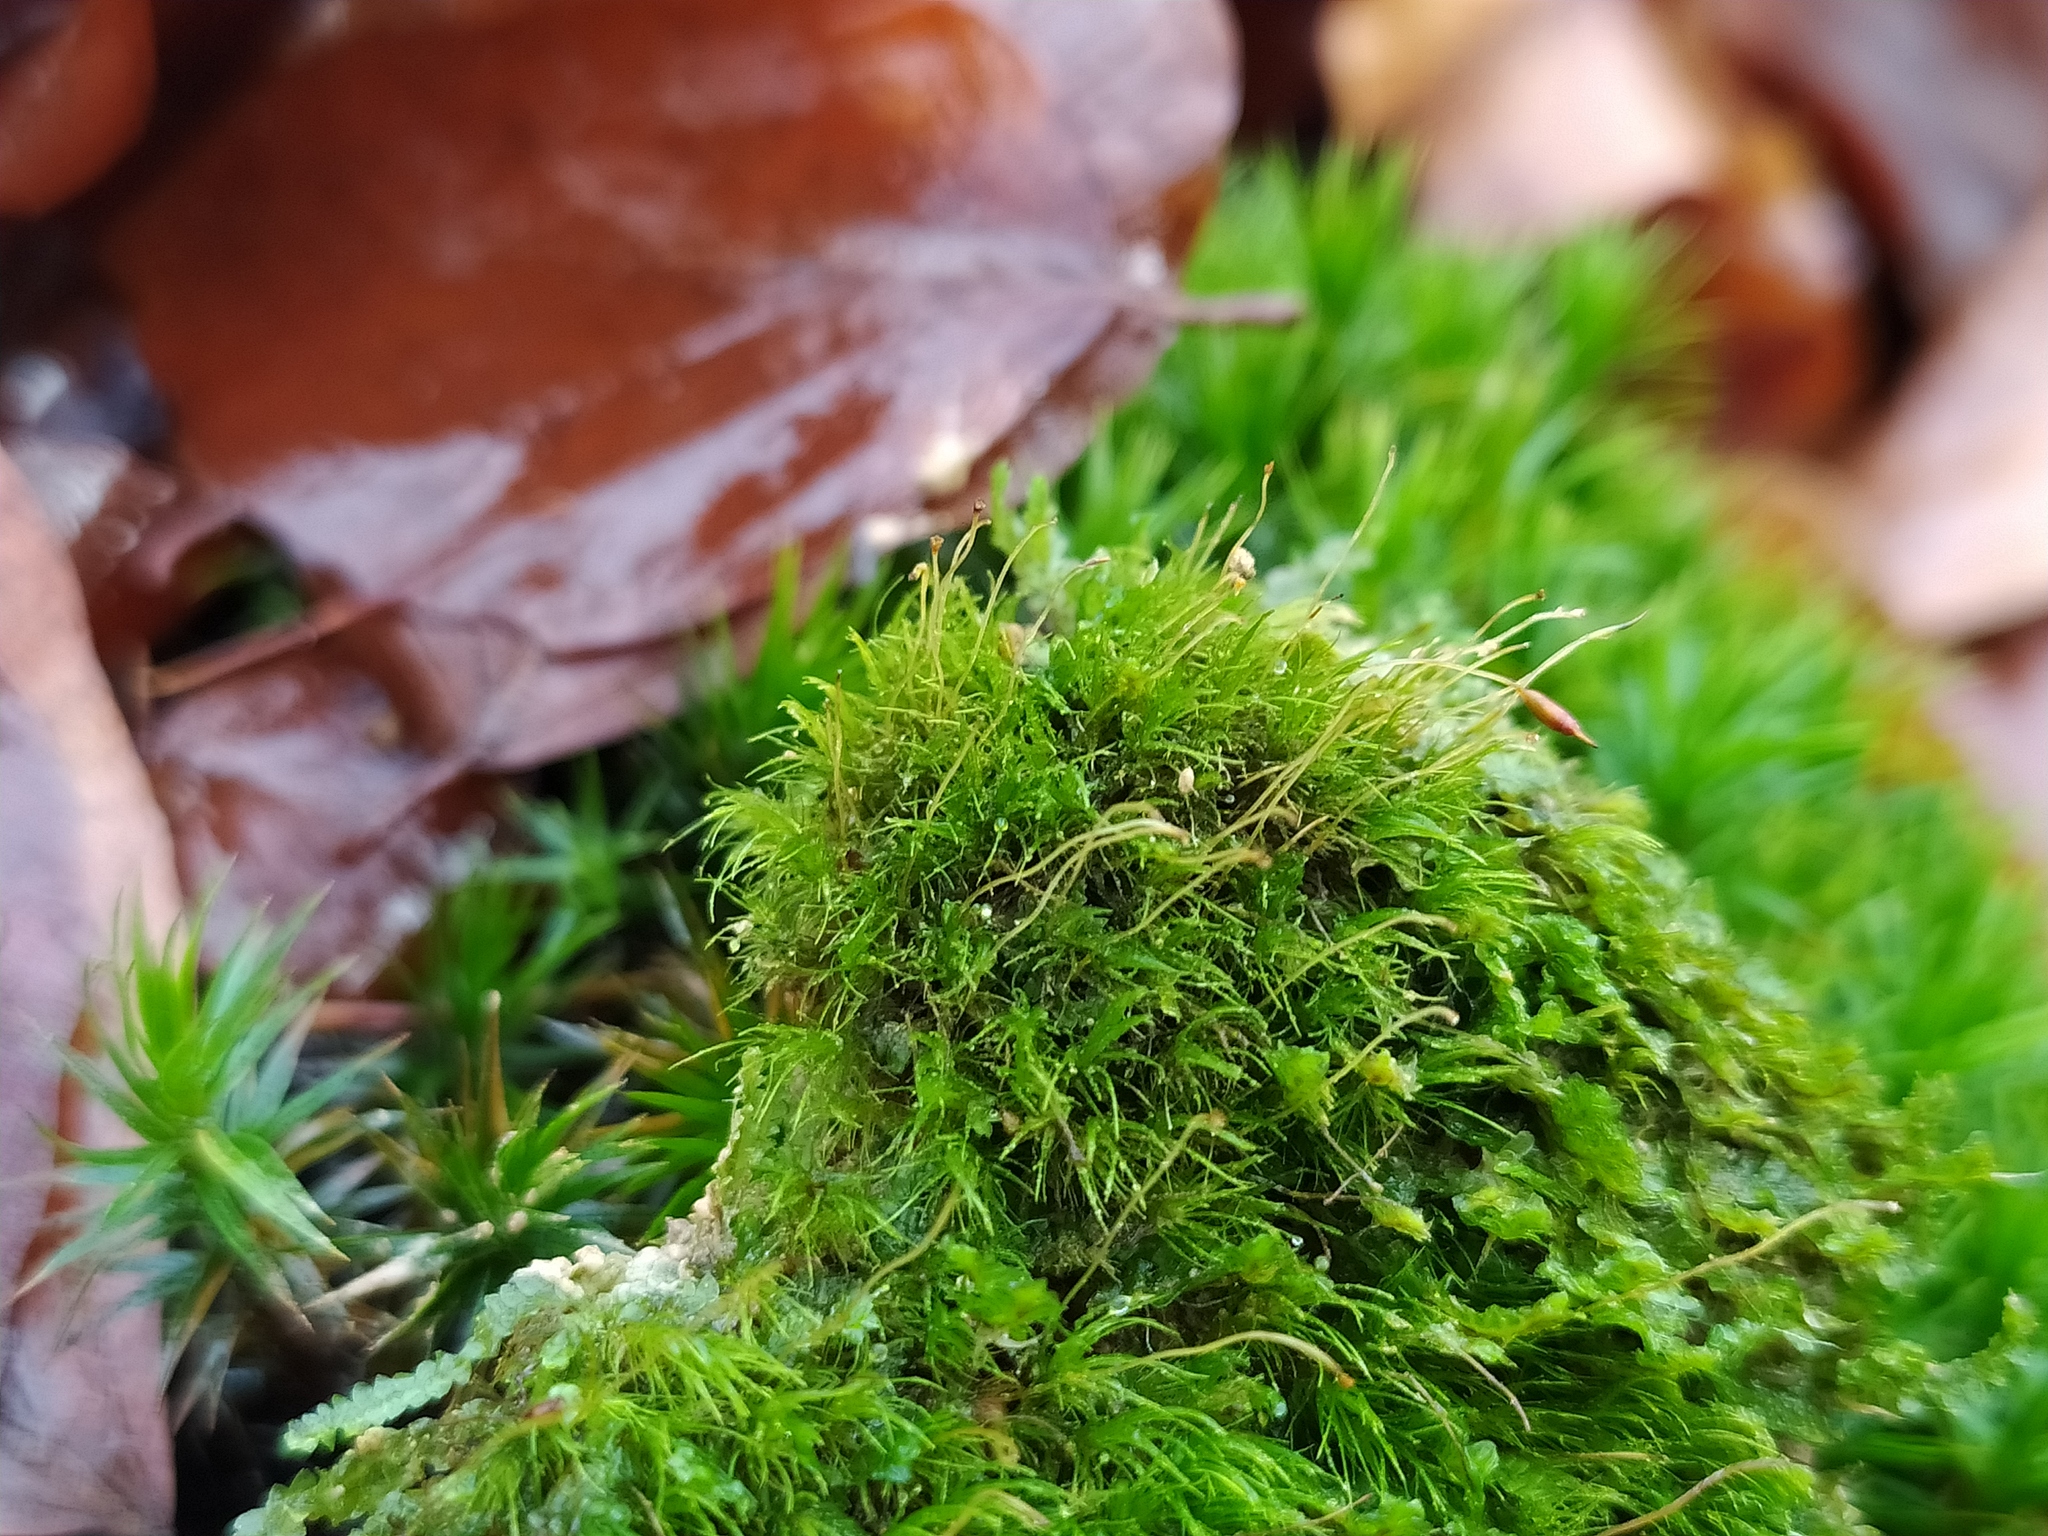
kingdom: Plantae
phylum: Bryophyta
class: Bryopsida
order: Dicranales
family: Dicranellaceae
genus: Dicranella
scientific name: Dicranella heteromalla
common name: Silky forklet moss
